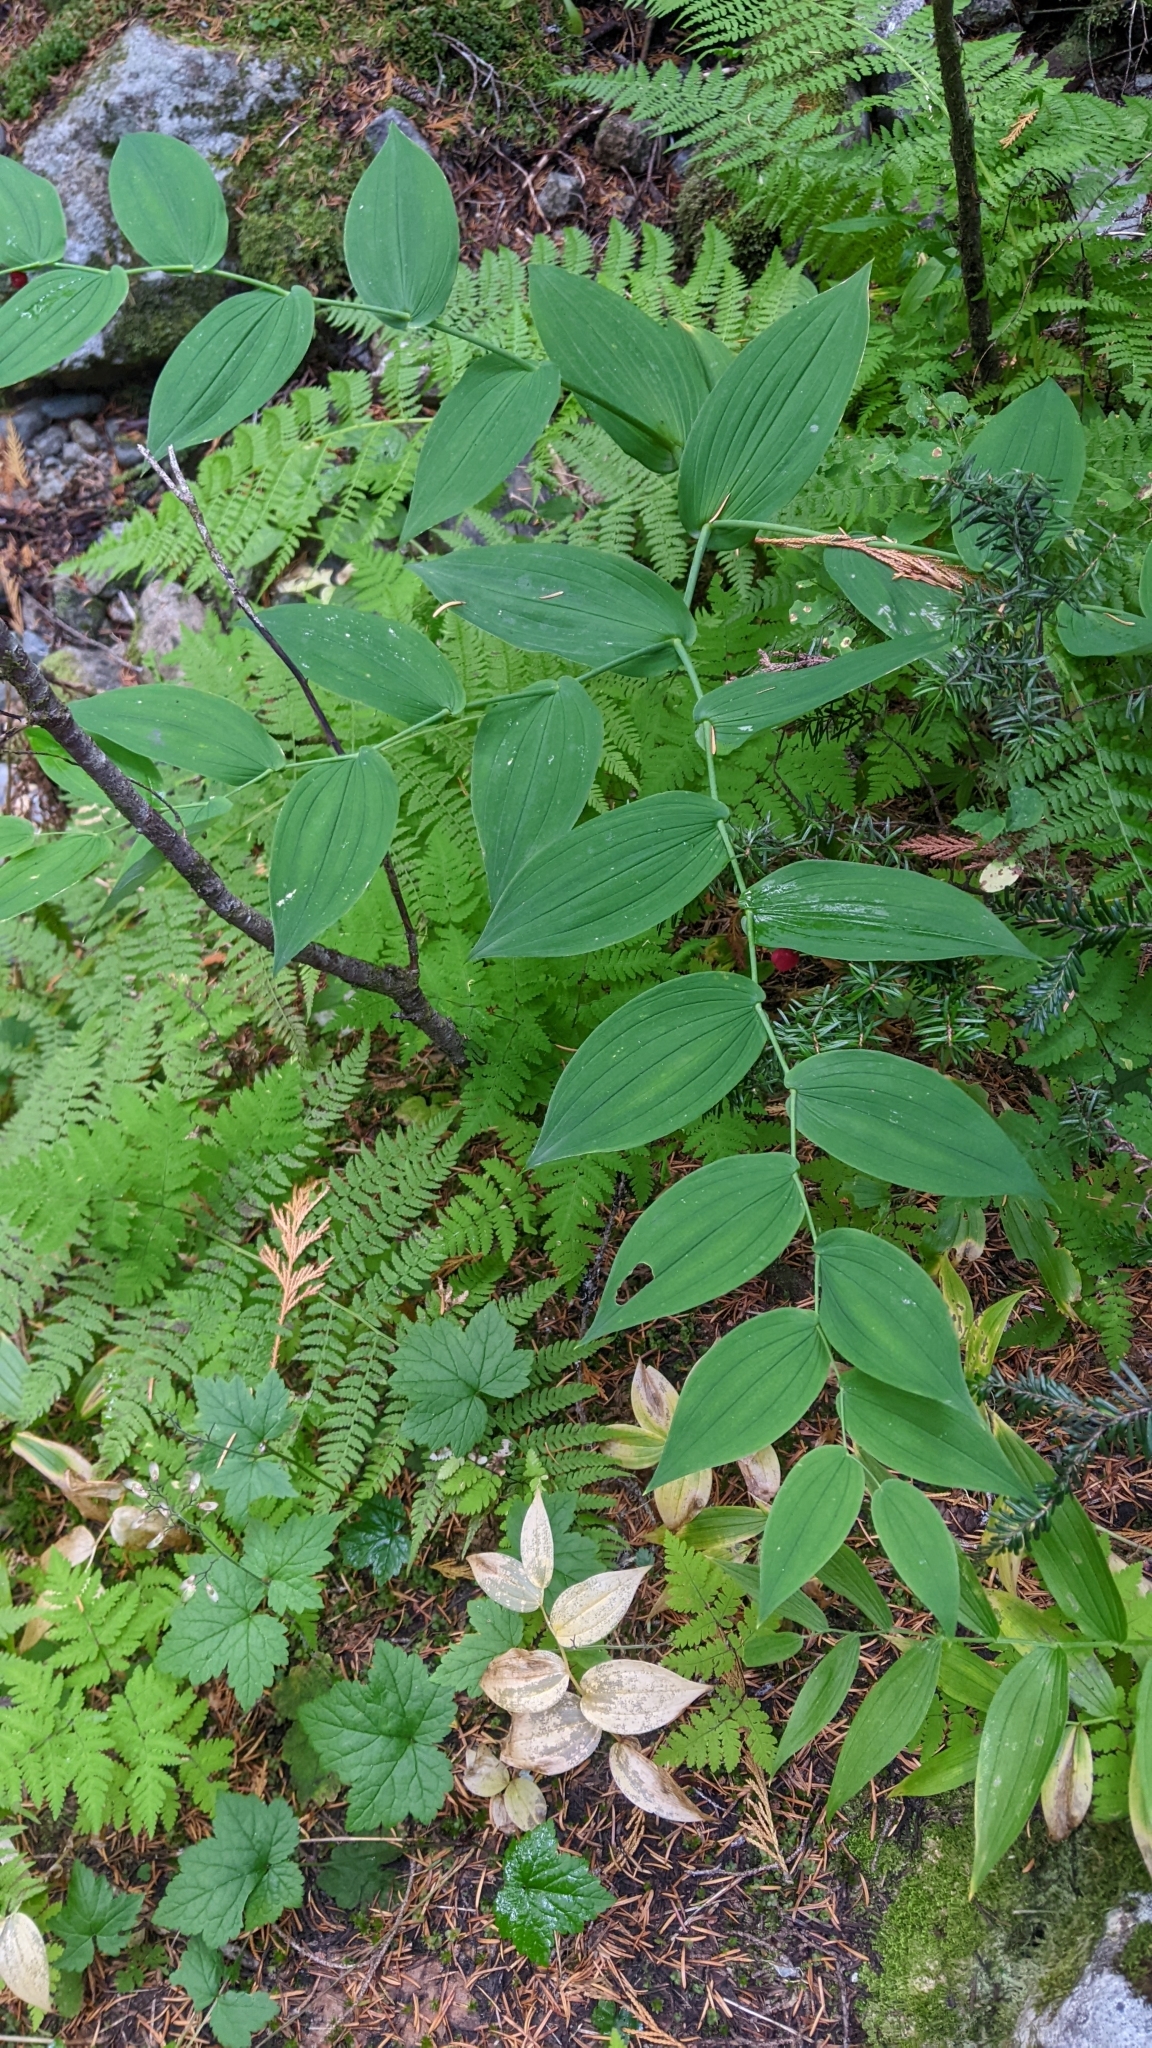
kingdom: Plantae
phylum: Tracheophyta
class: Liliopsida
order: Liliales
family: Liliaceae
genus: Streptopus
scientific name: Streptopus amplexifolius
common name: Clasp twisted stalk
